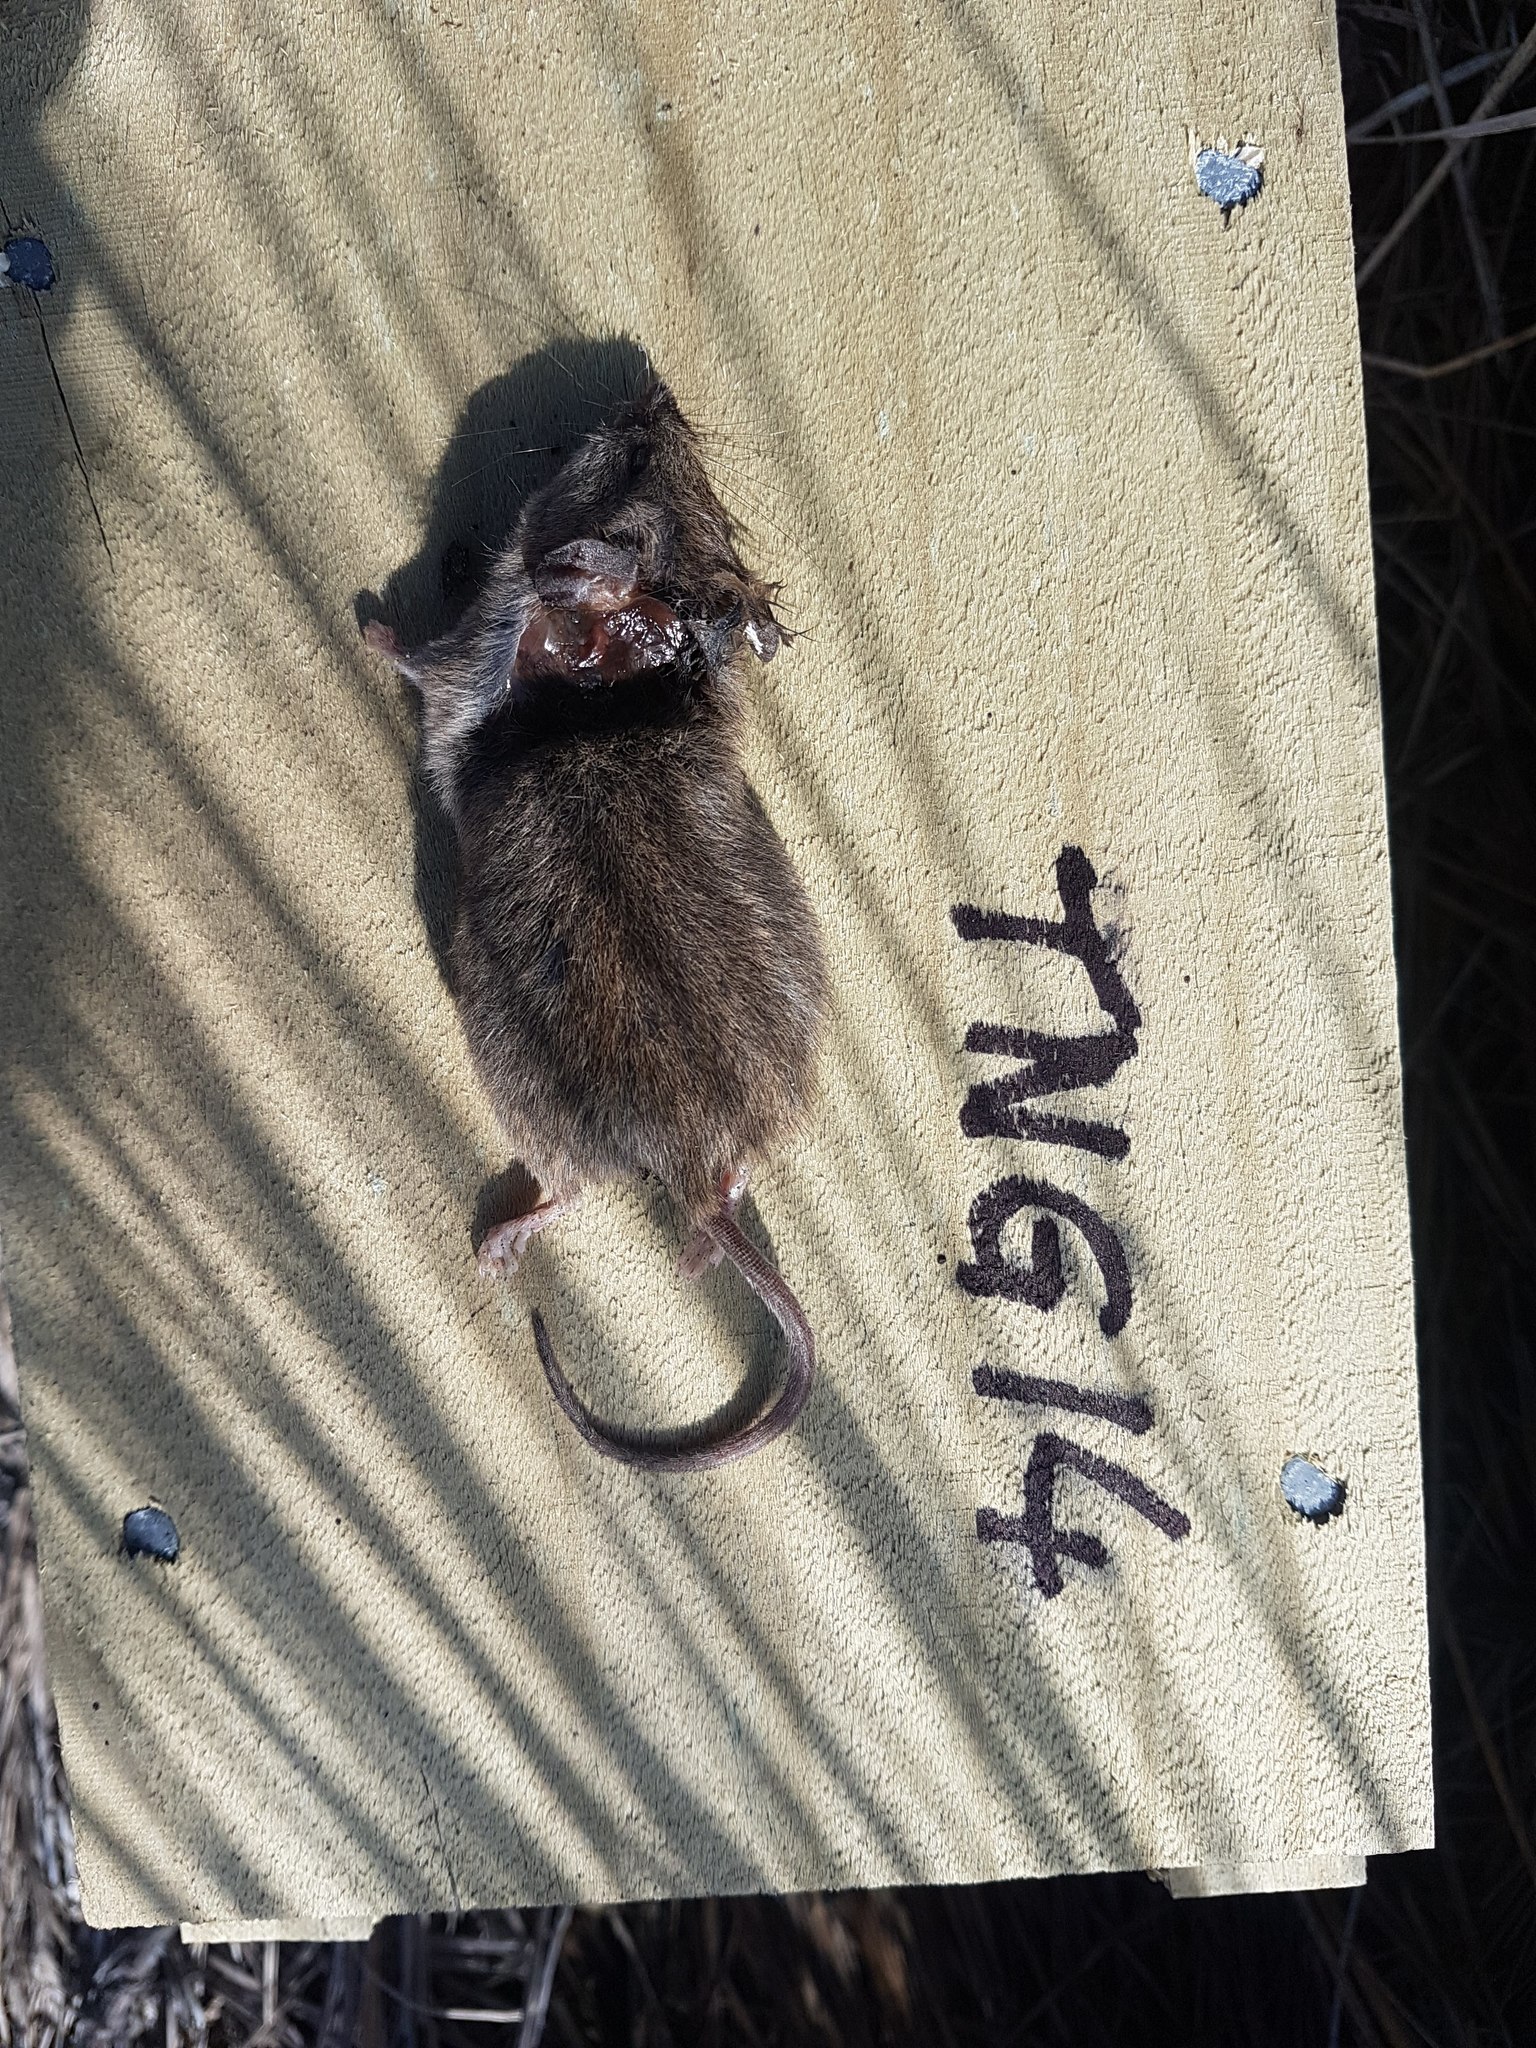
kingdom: Animalia
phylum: Chordata
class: Mammalia
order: Rodentia
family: Muridae
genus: Mus
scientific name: Mus musculus
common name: House mouse
